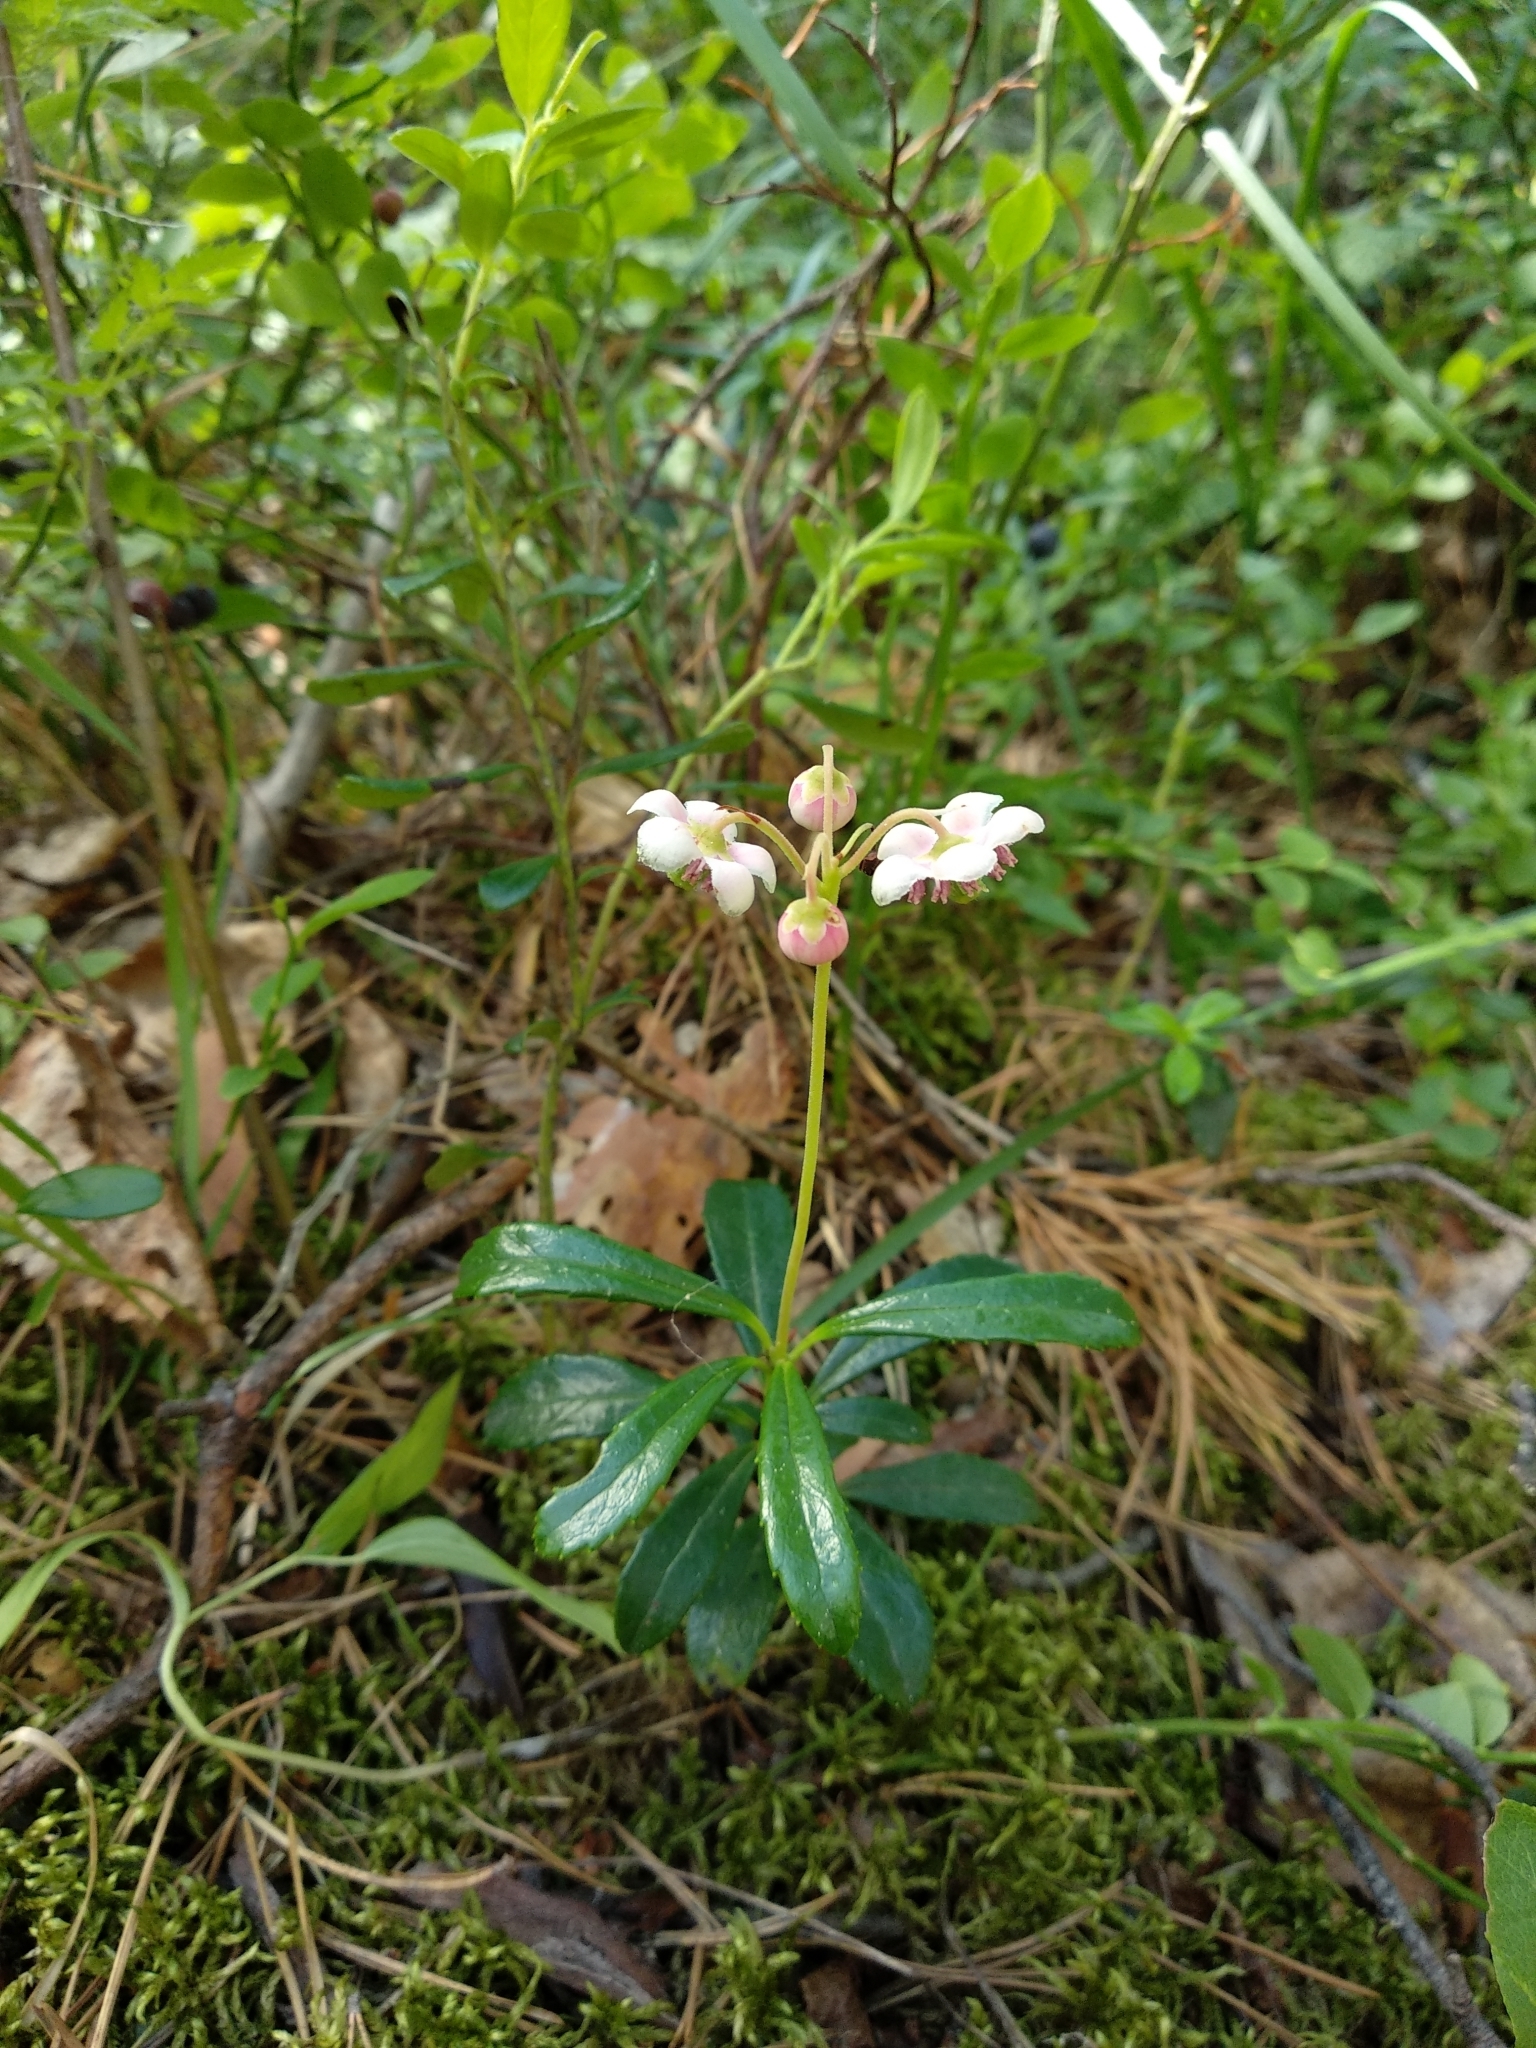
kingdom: Plantae
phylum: Tracheophyta
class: Magnoliopsida
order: Ericales
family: Ericaceae
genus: Chimaphila
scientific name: Chimaphila umbellata
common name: Pipsissewa
